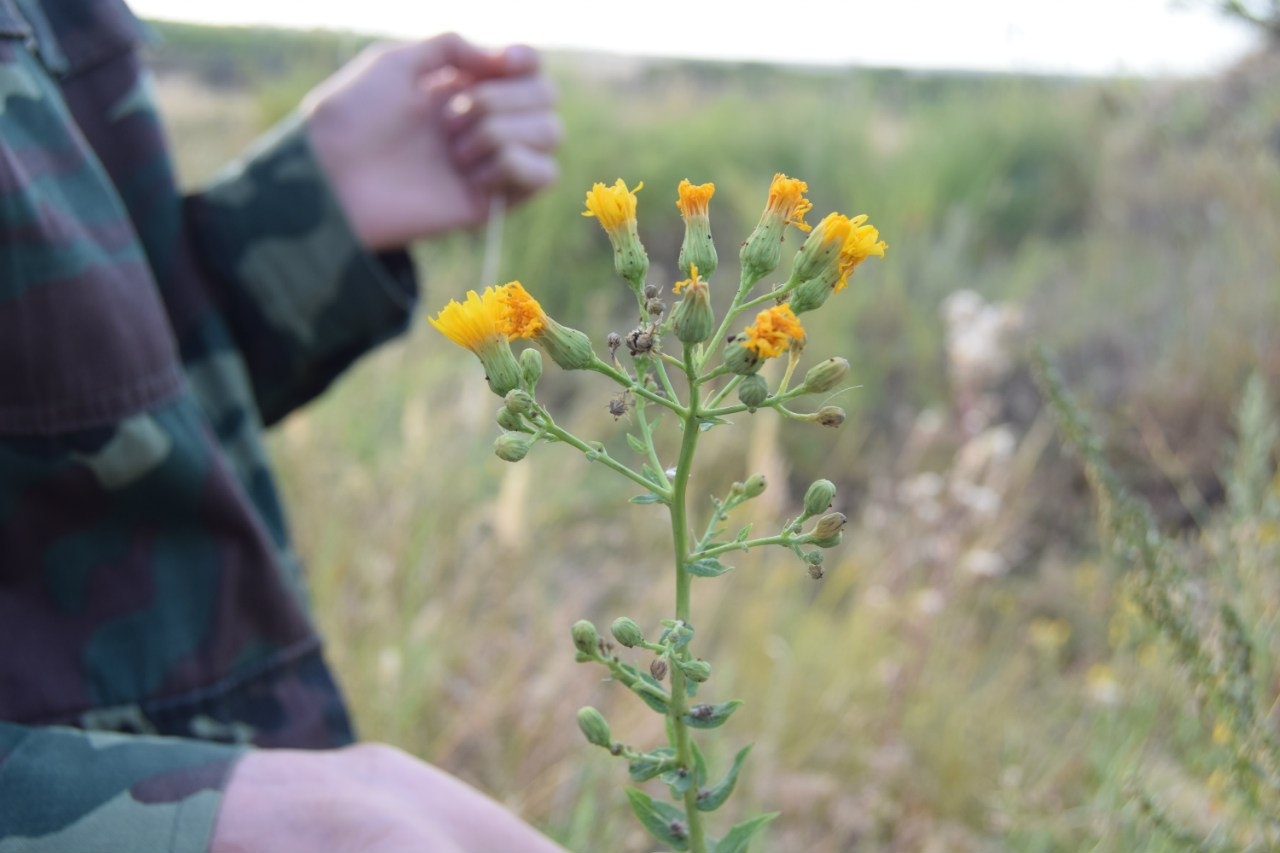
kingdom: Plantae
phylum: Tracheophyta
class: Magnoliopsida
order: Asterales
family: Asteraceae
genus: Hieracium
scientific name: Hieracium virosum
